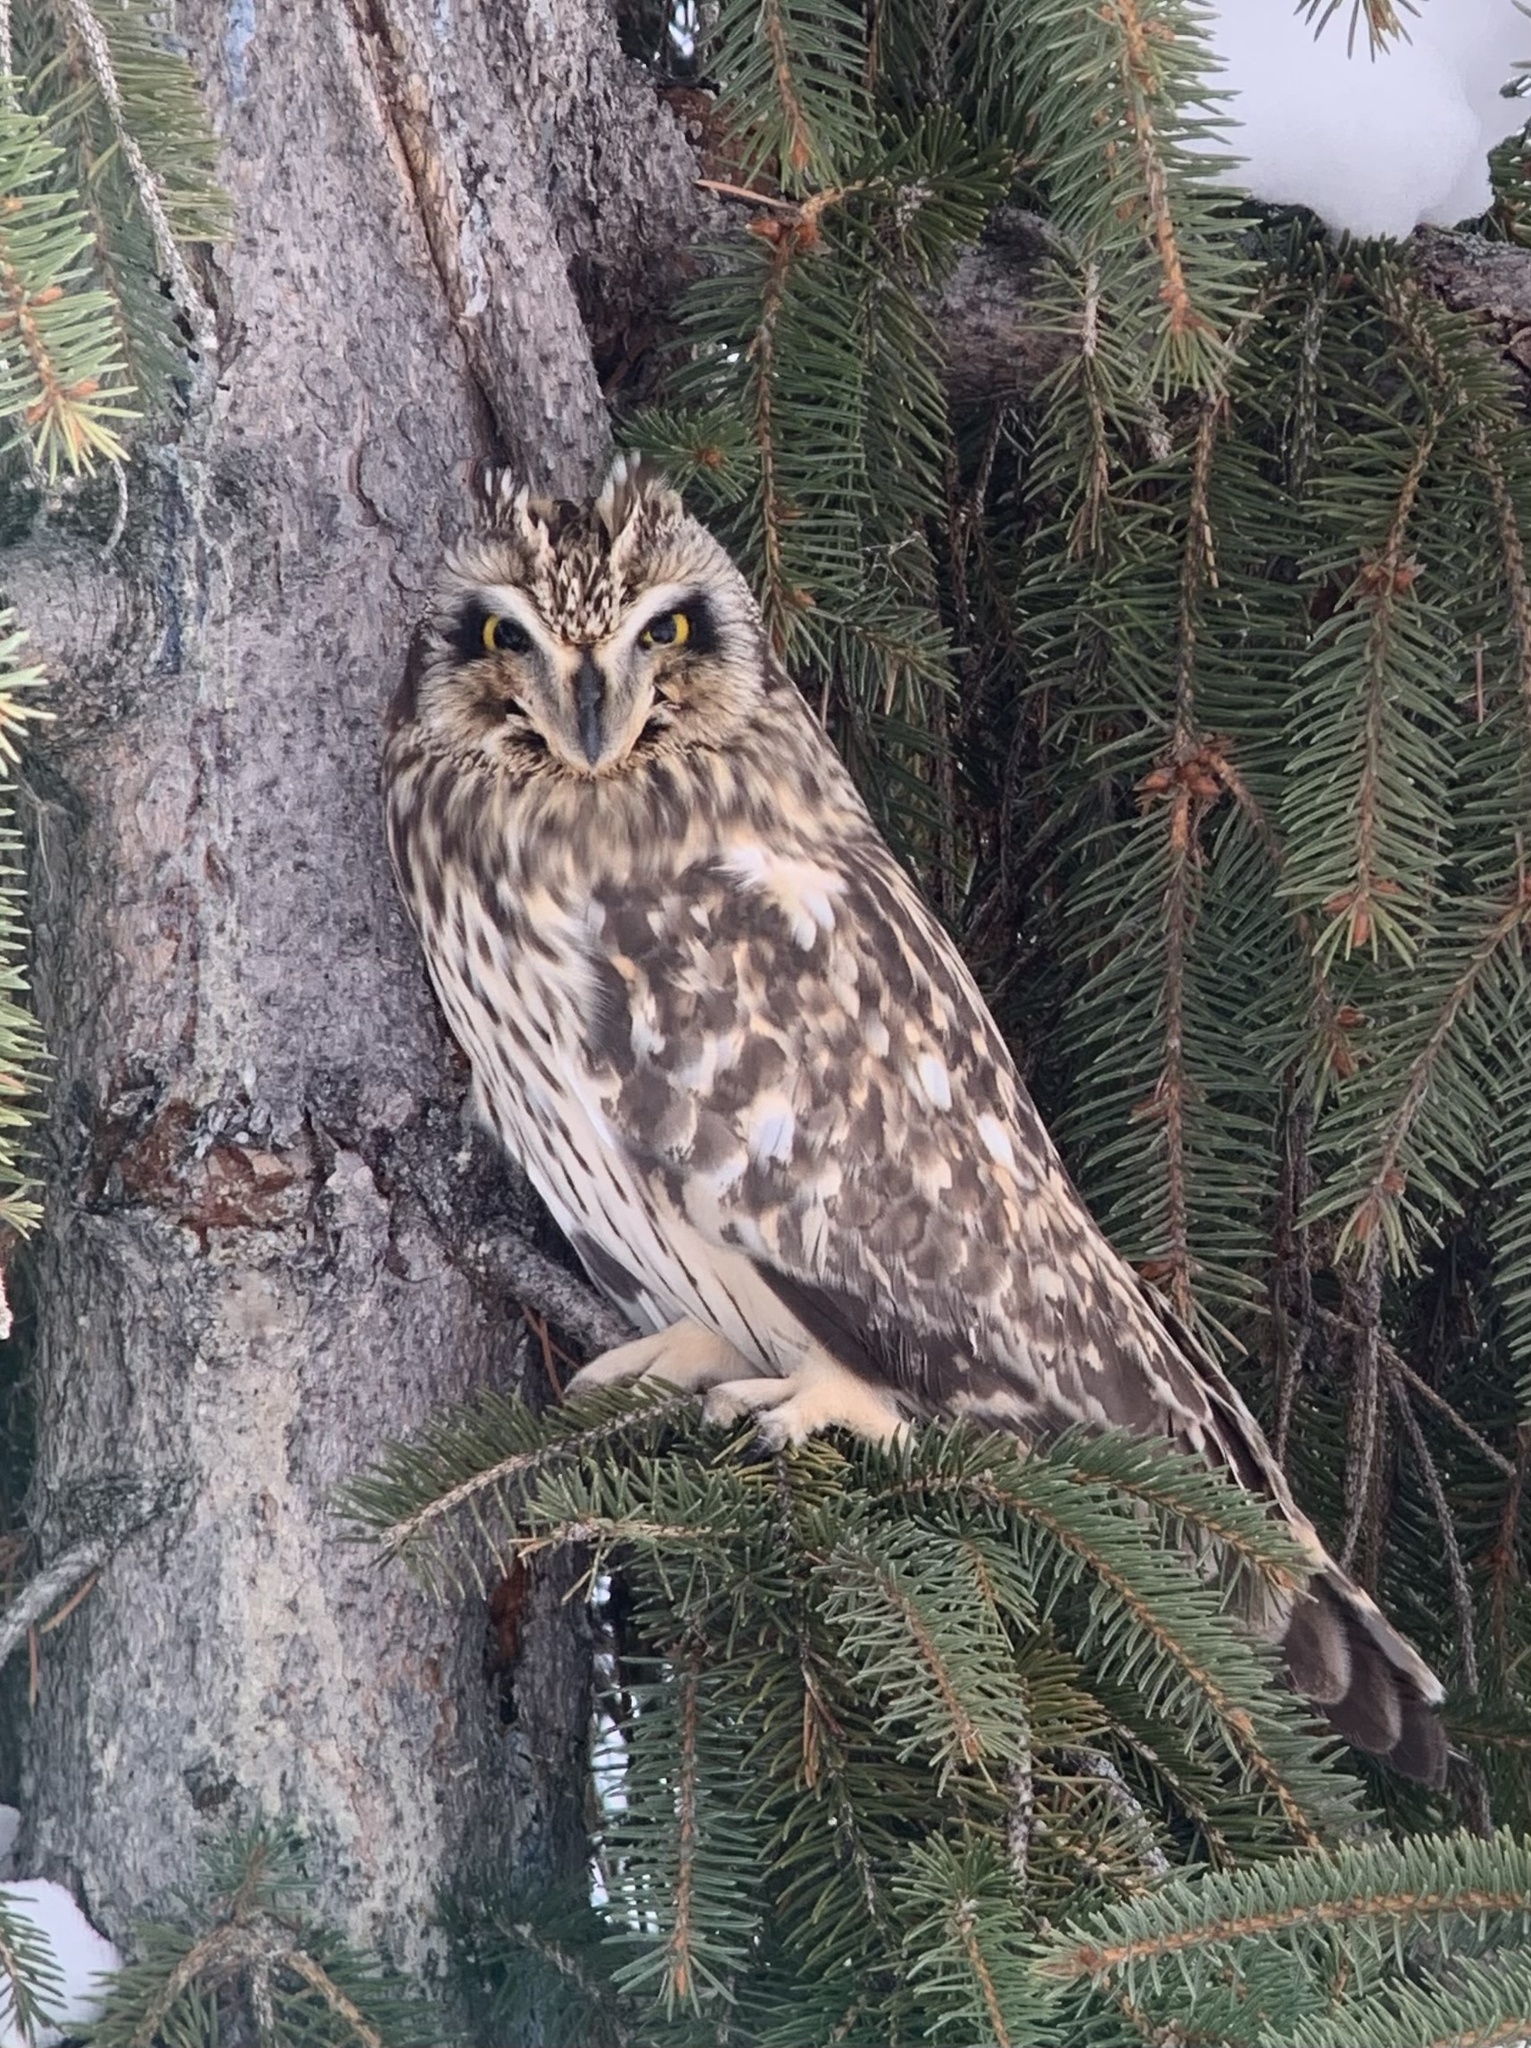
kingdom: Animalia
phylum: Chordata
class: Aves
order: Strigiformes
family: Strigidae
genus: Asio
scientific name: Asio flammeus
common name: Short-eared owl
